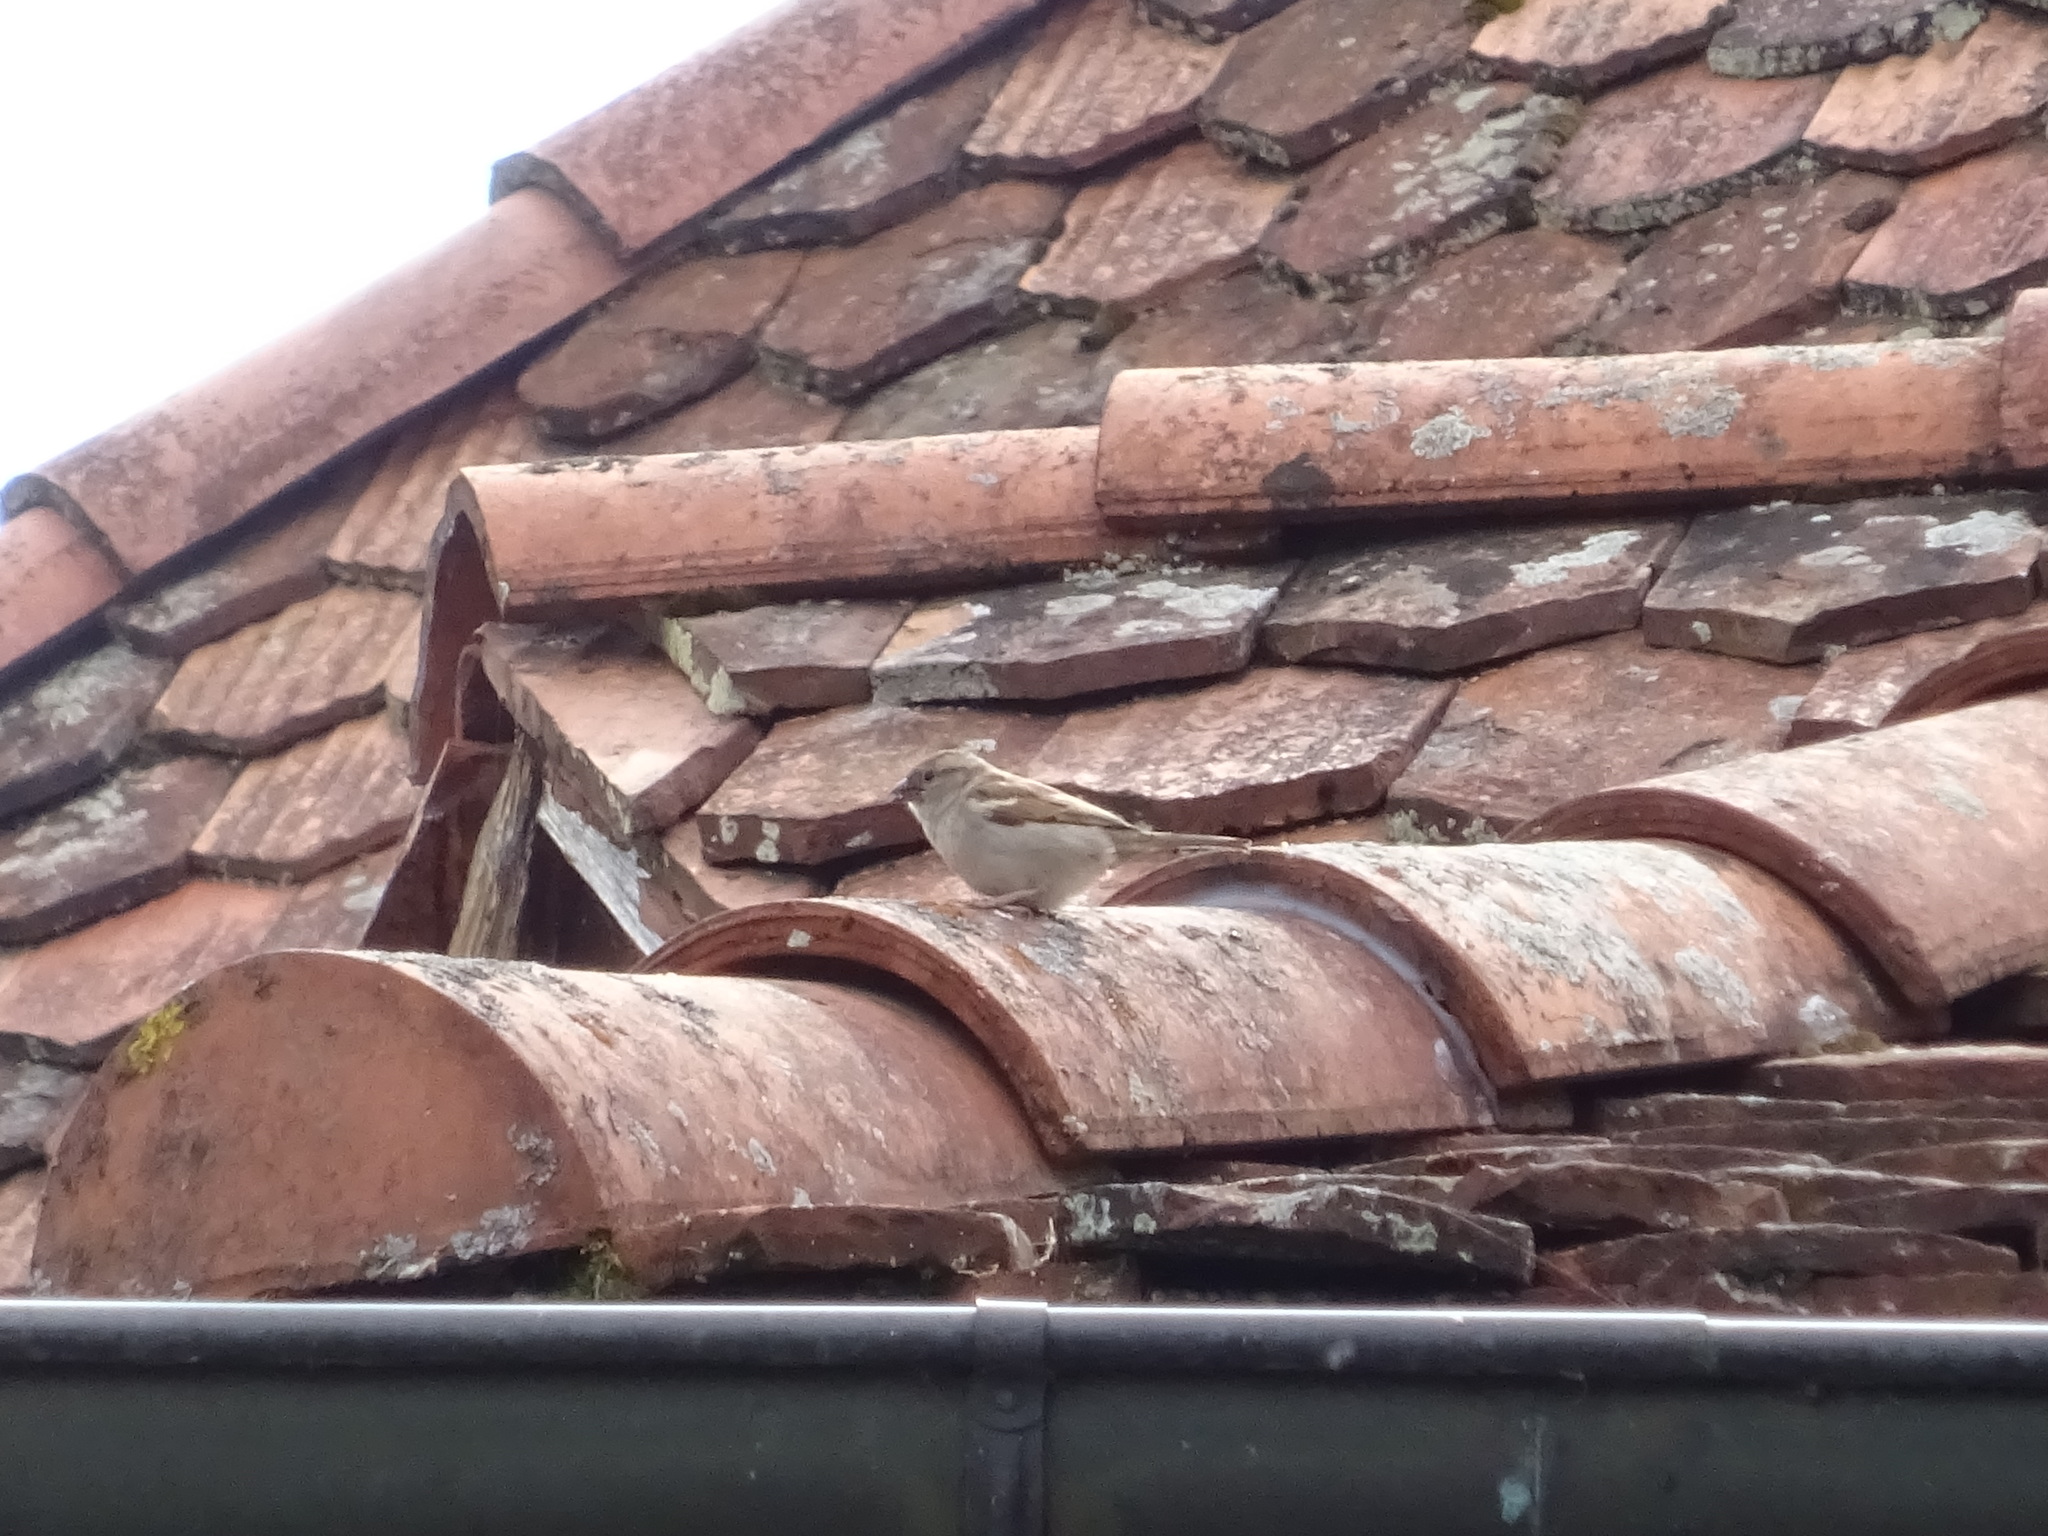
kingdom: Animalia
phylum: Chordata
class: Aves
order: Passeriformes
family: Passeridae
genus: Passer
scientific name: Passer domesticus
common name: House sparrow
